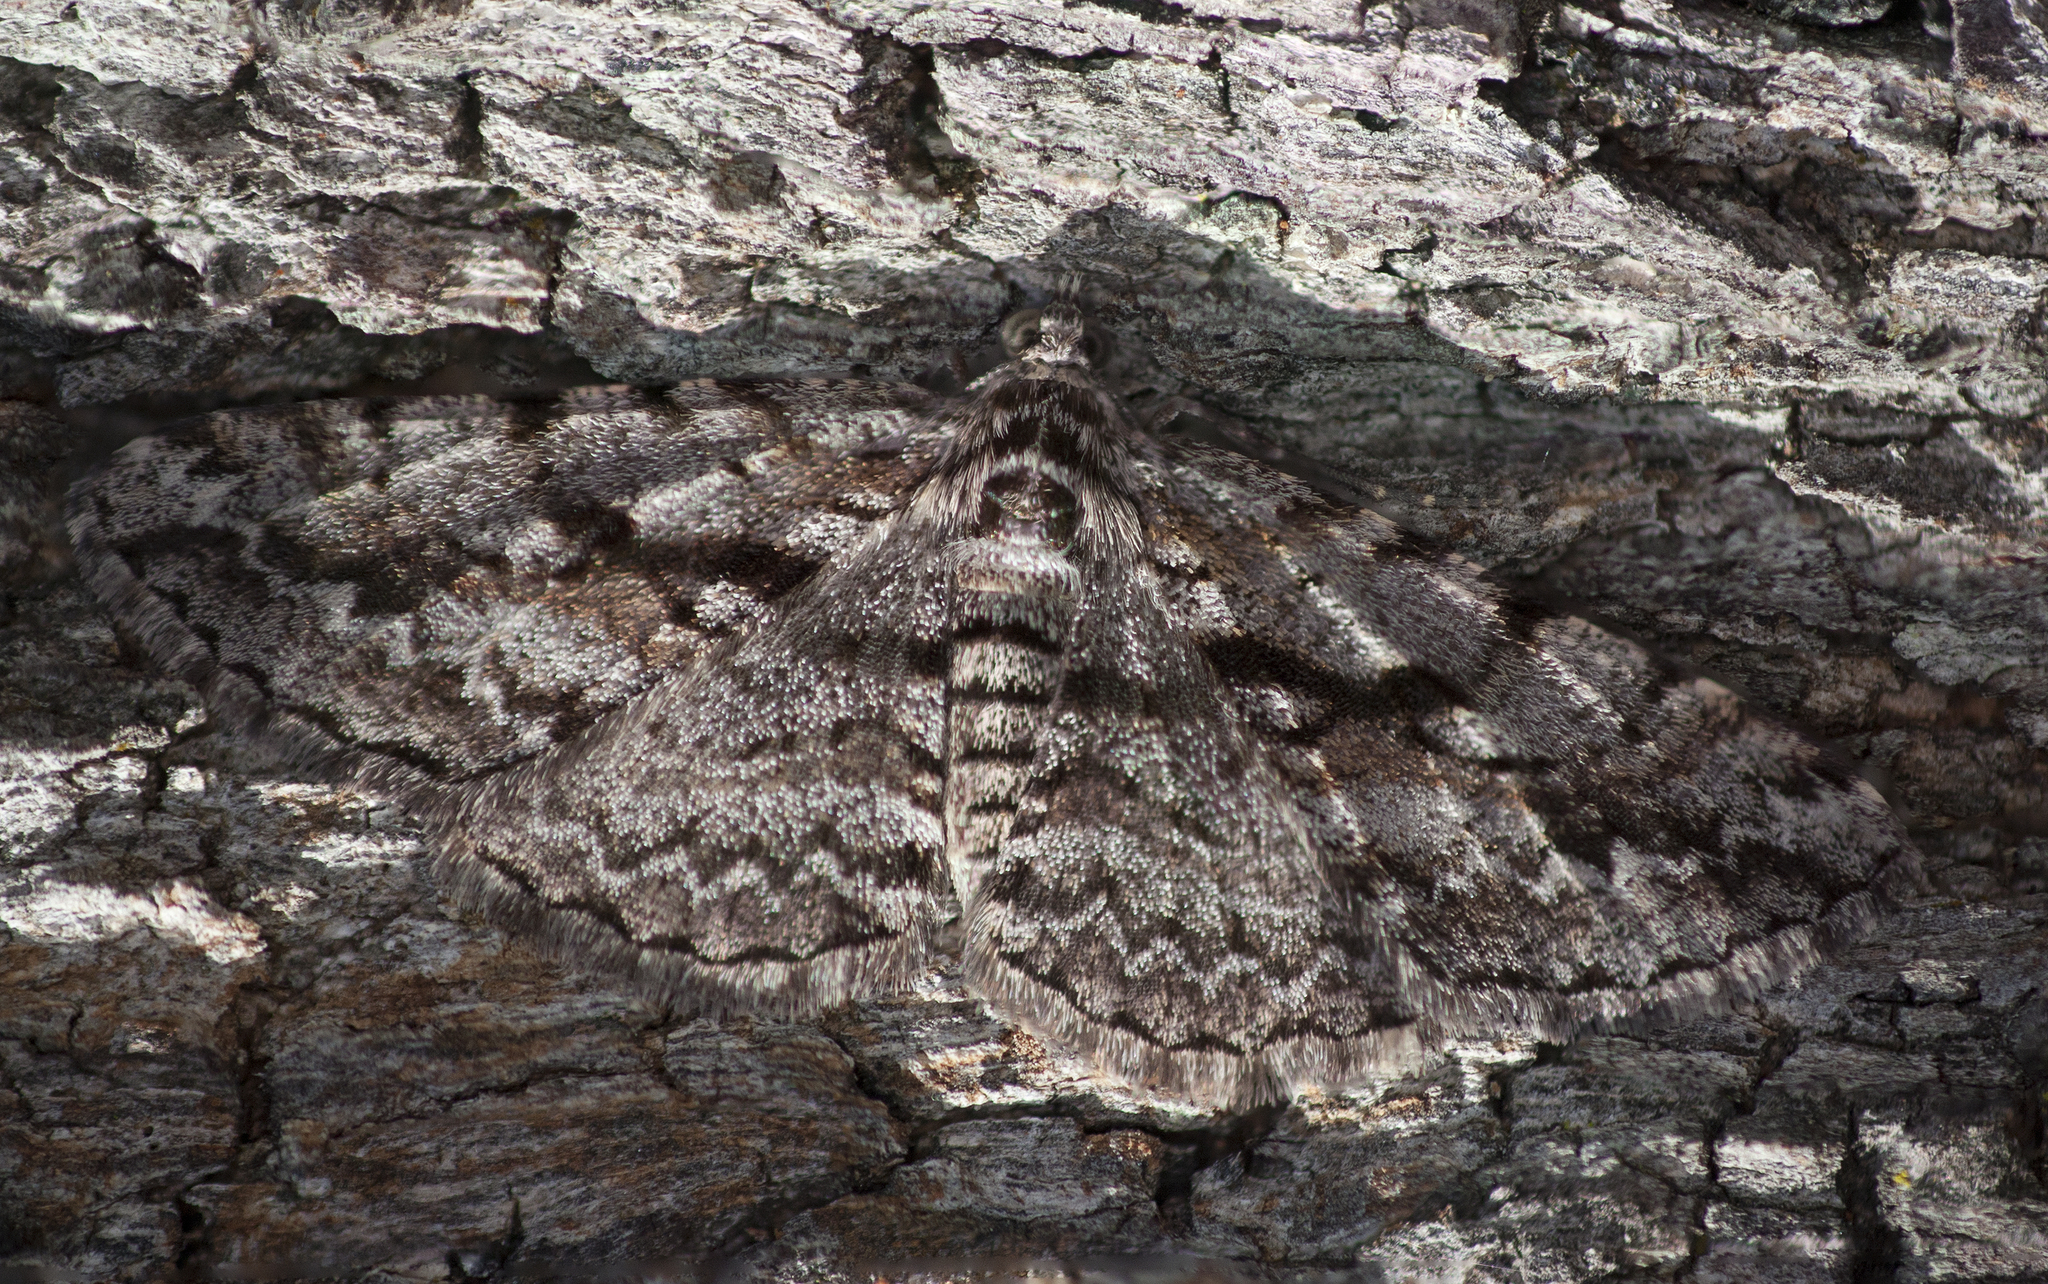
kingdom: Animalia
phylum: Arthropoda
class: Insecta
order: Lepidoptera
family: Geometridae
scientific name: Geometridae
